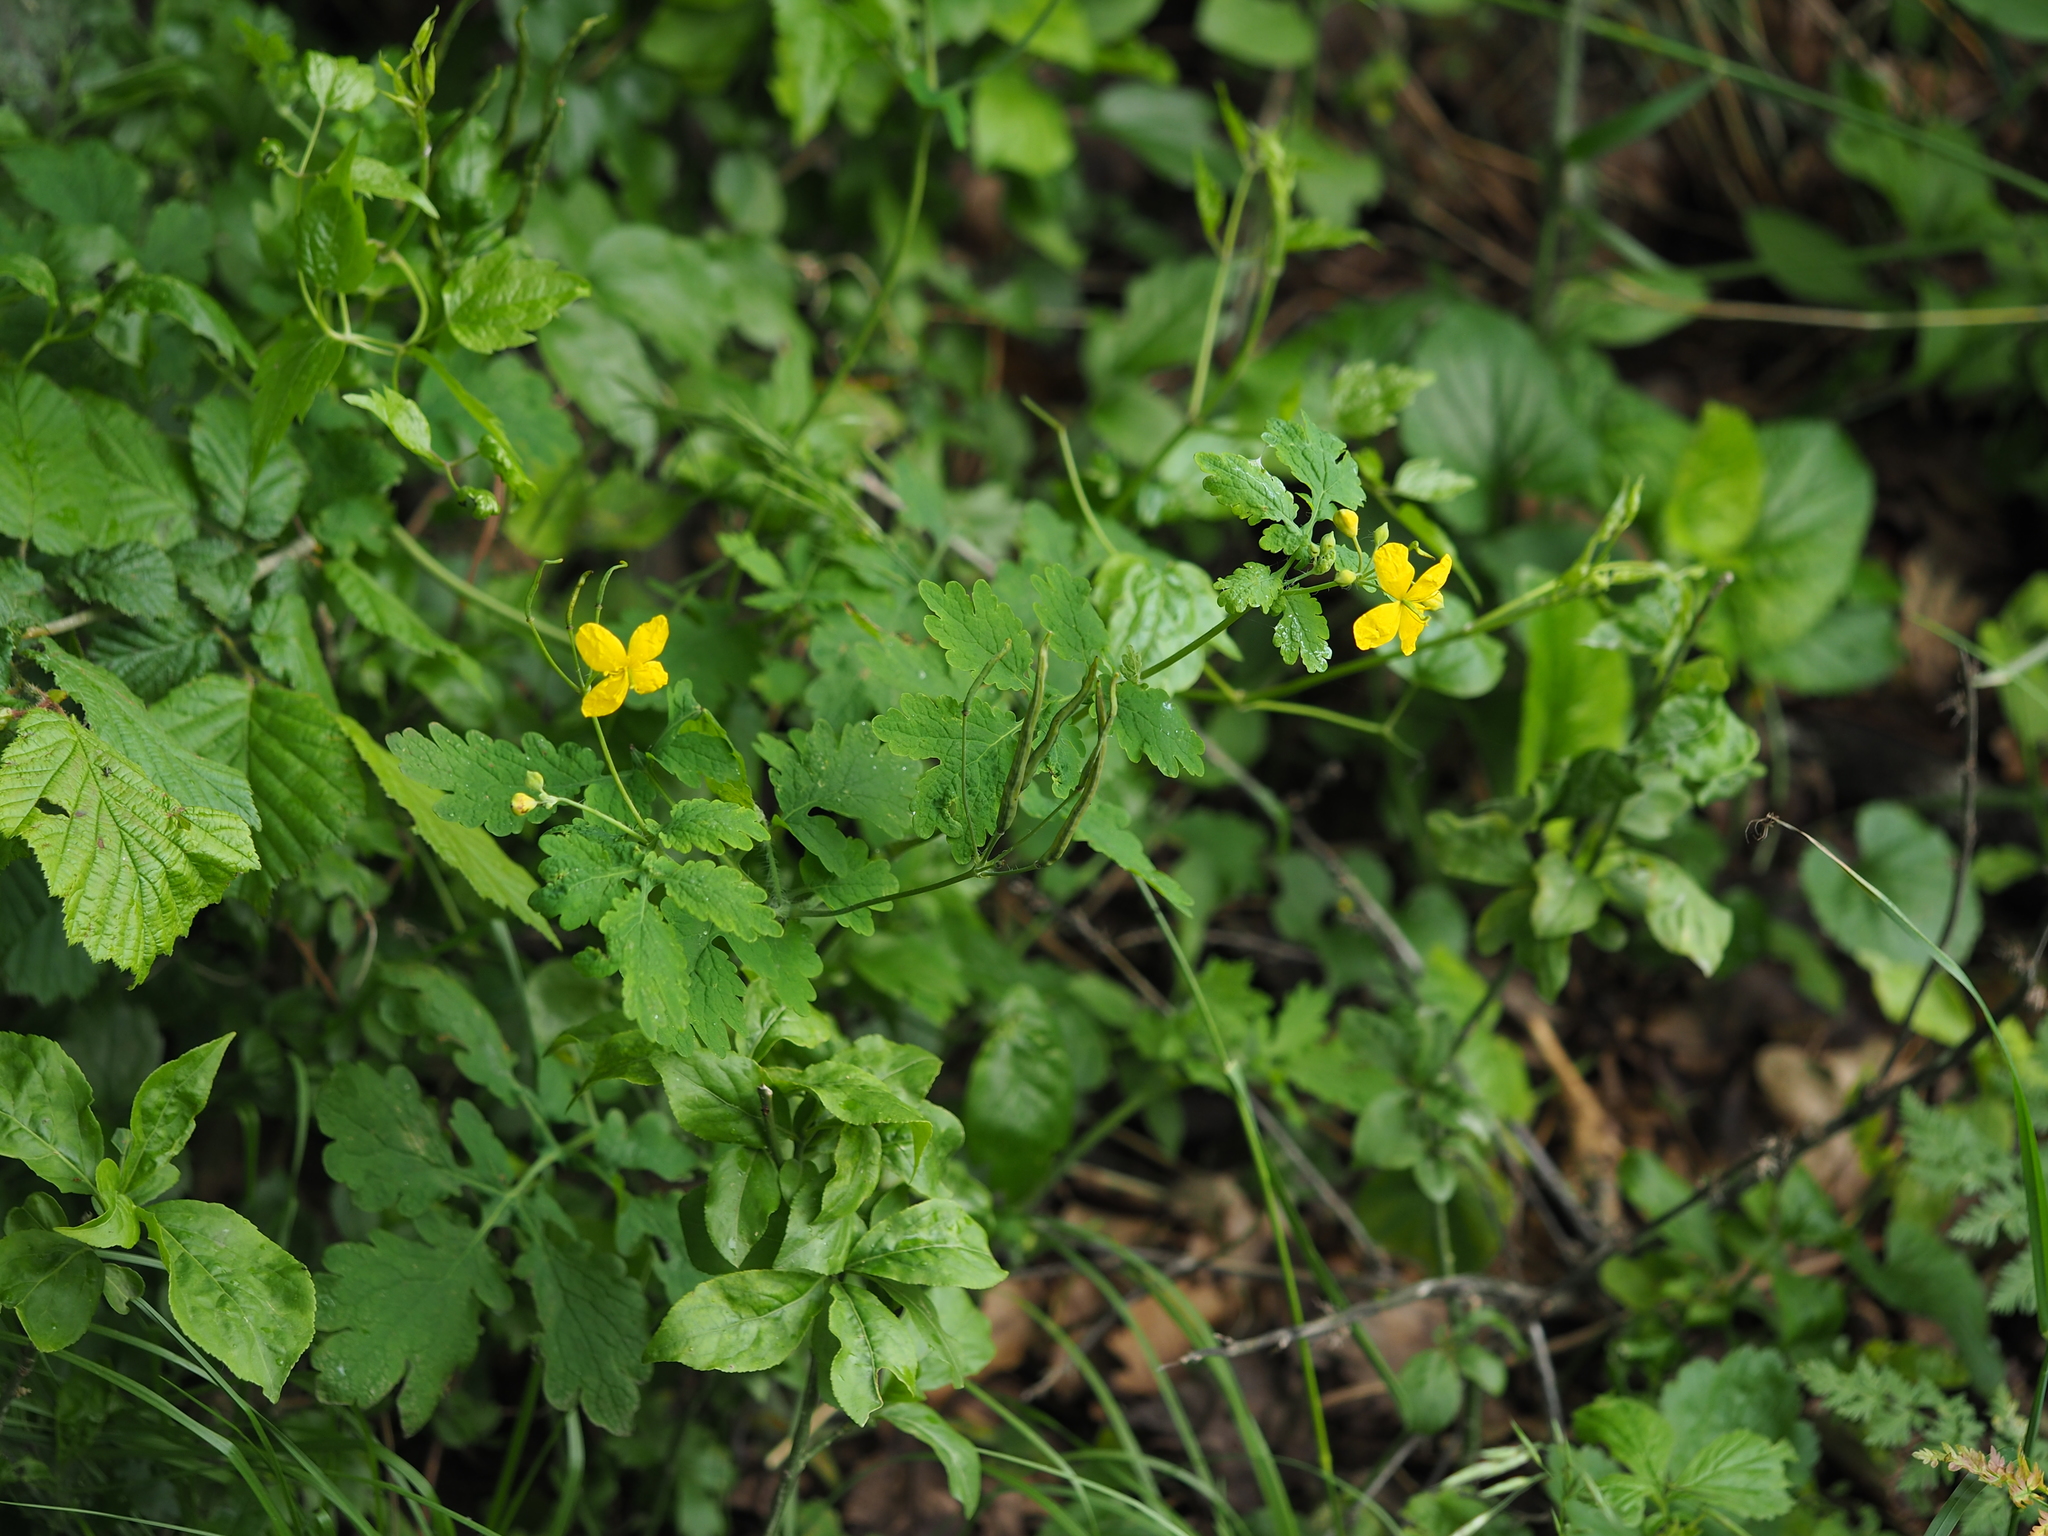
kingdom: Plantae
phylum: Tracheophyta
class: Magnoliopsida
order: Ranunculales
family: Papaveraceae
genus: Chelidonium
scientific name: Chelidonium majus
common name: Greater celandine
